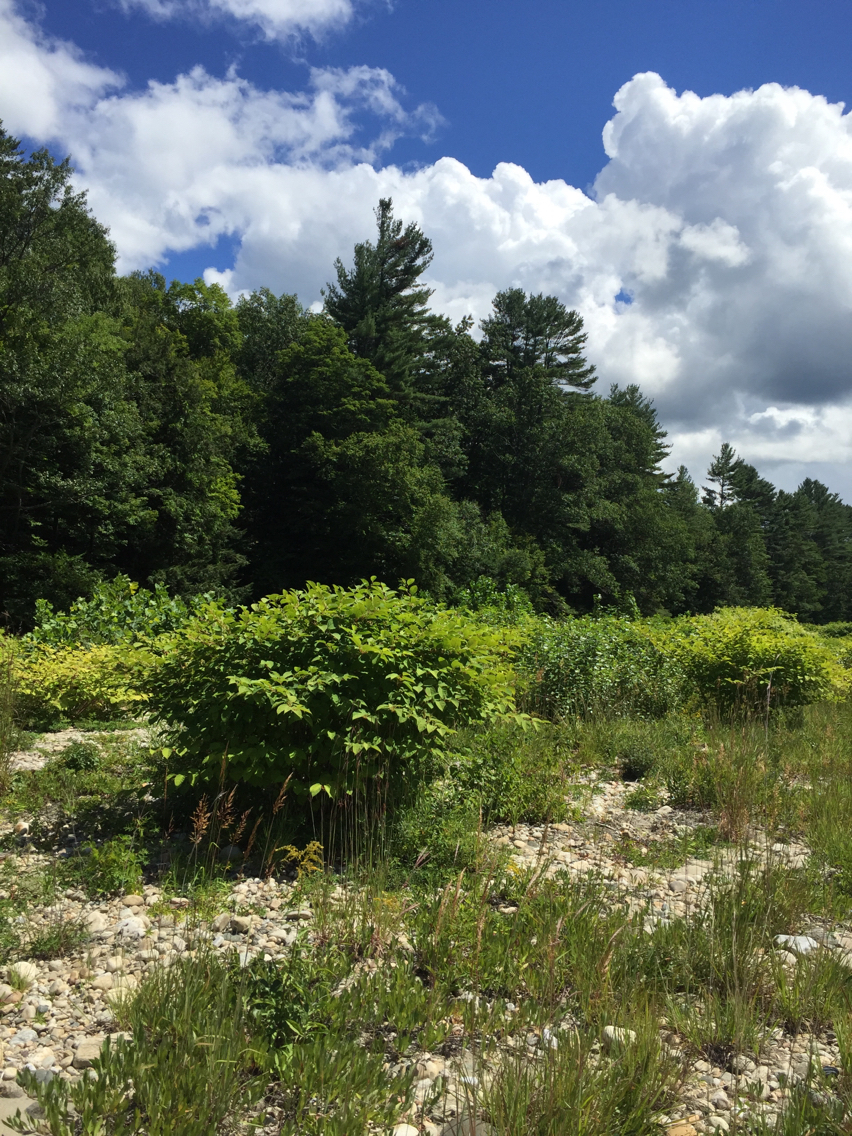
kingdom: Plantae
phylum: Tracheophyta
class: Magnoliopsida
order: Caryophyllales
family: Polygonaceae
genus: Reynoutria
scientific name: Reynoutria japonica
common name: Japanese knotweed
